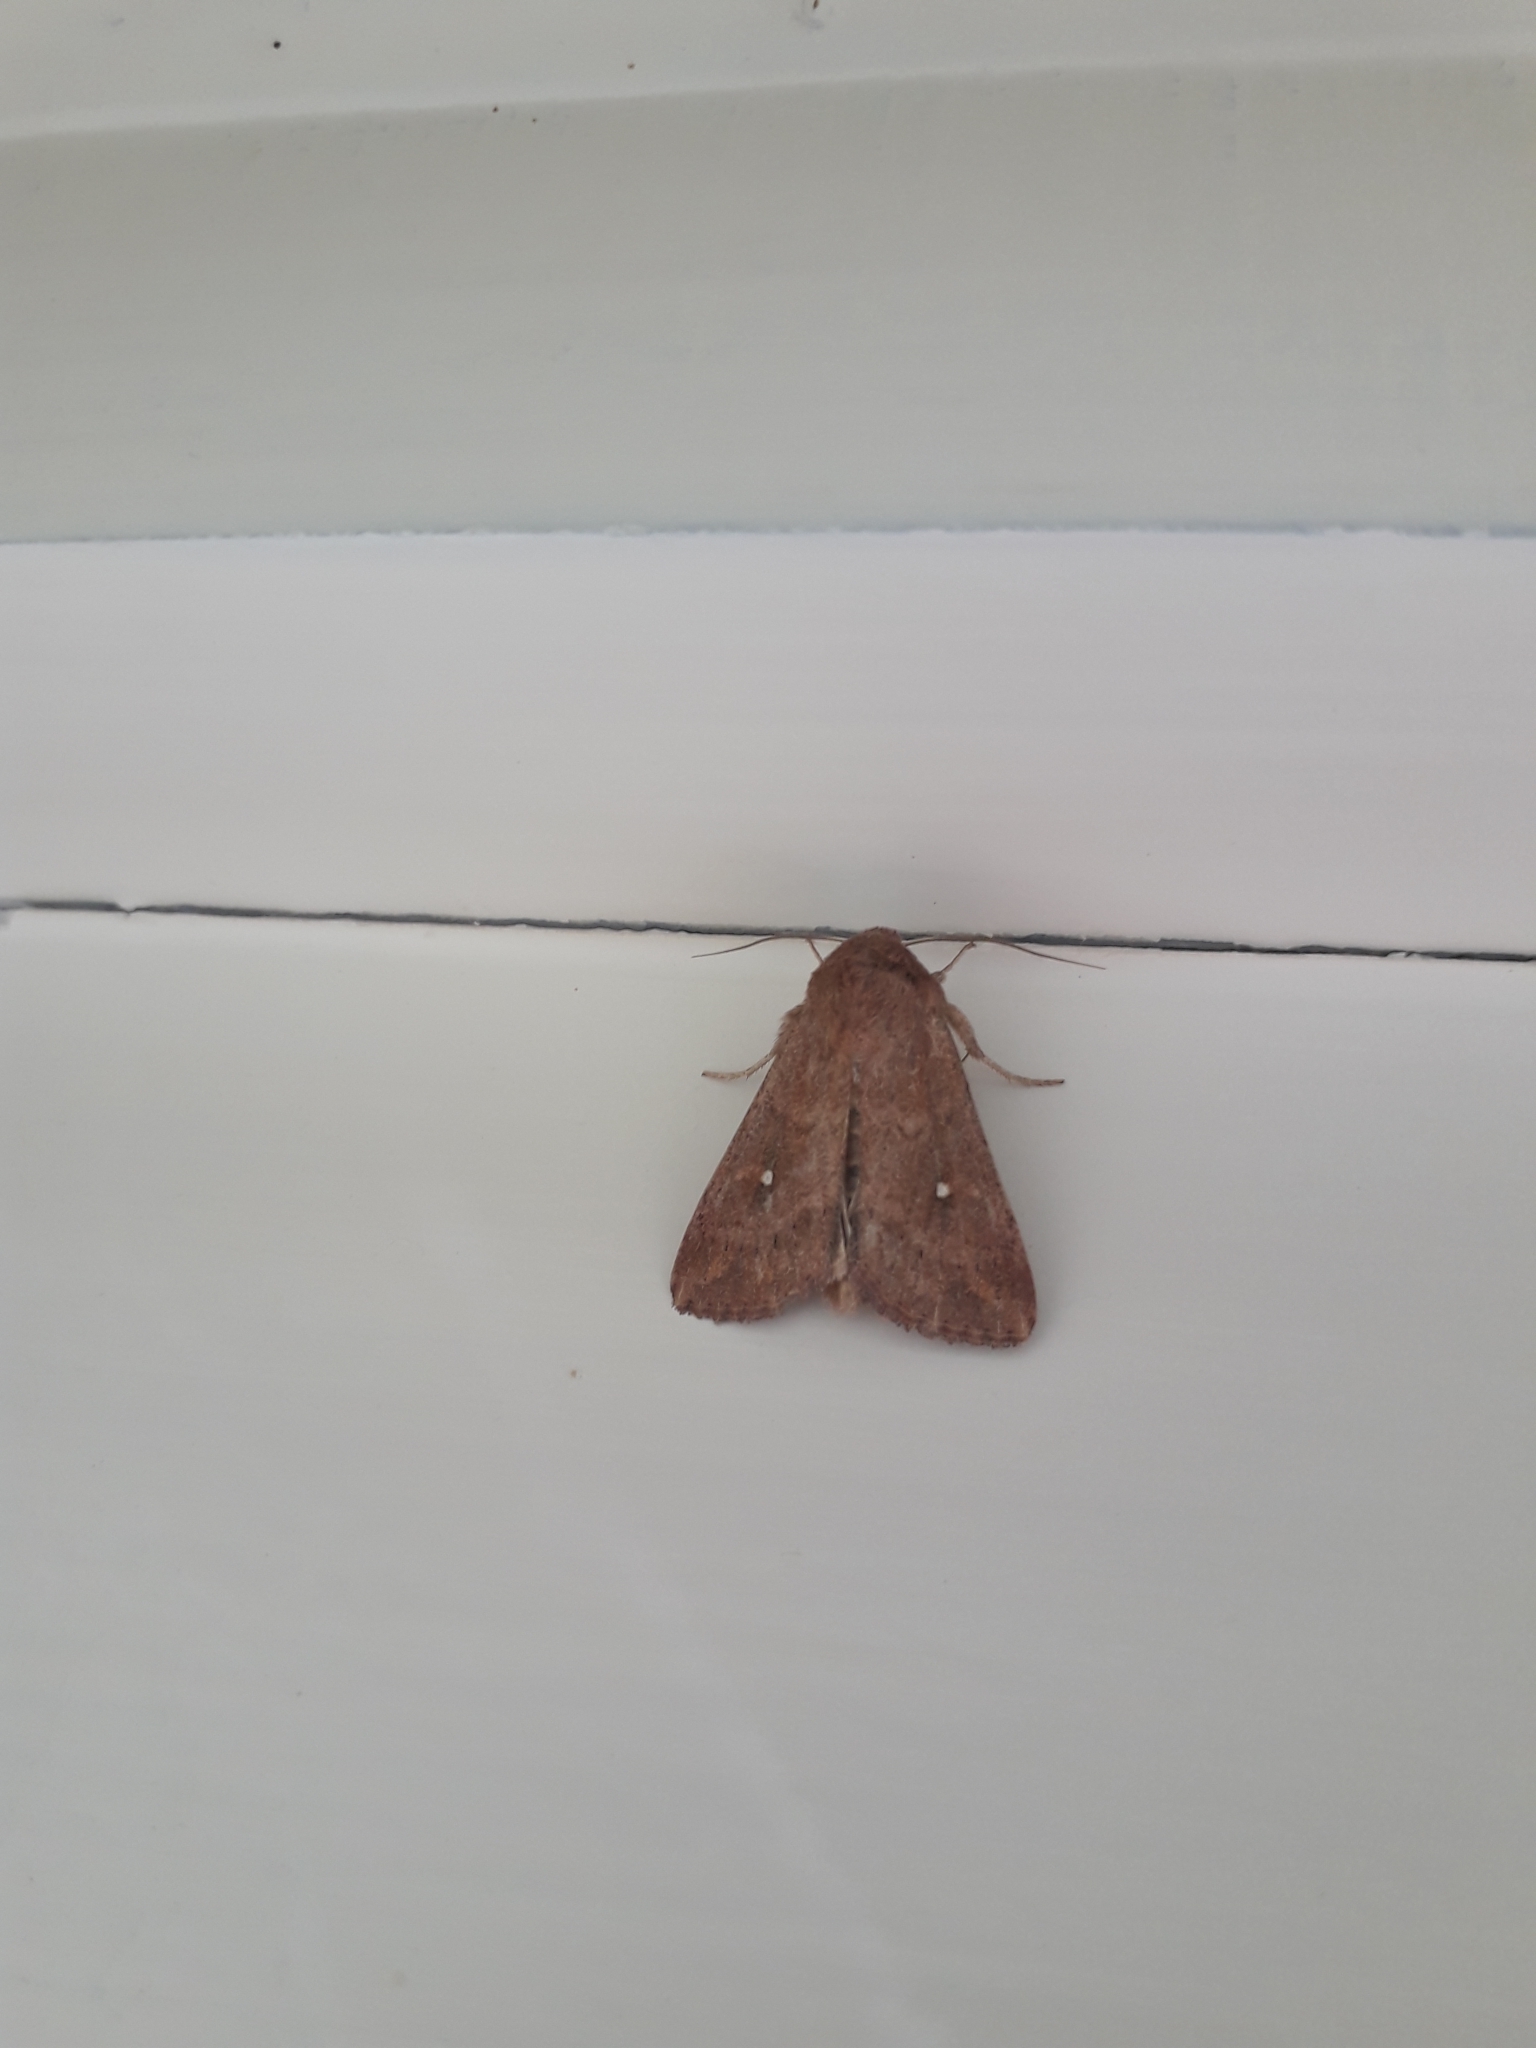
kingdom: Animalia
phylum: Arthropoda
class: Insecta
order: Lepidoptera
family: Noctuidae
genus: Mythimna
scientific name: Mythimna albipuncta
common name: White-point
